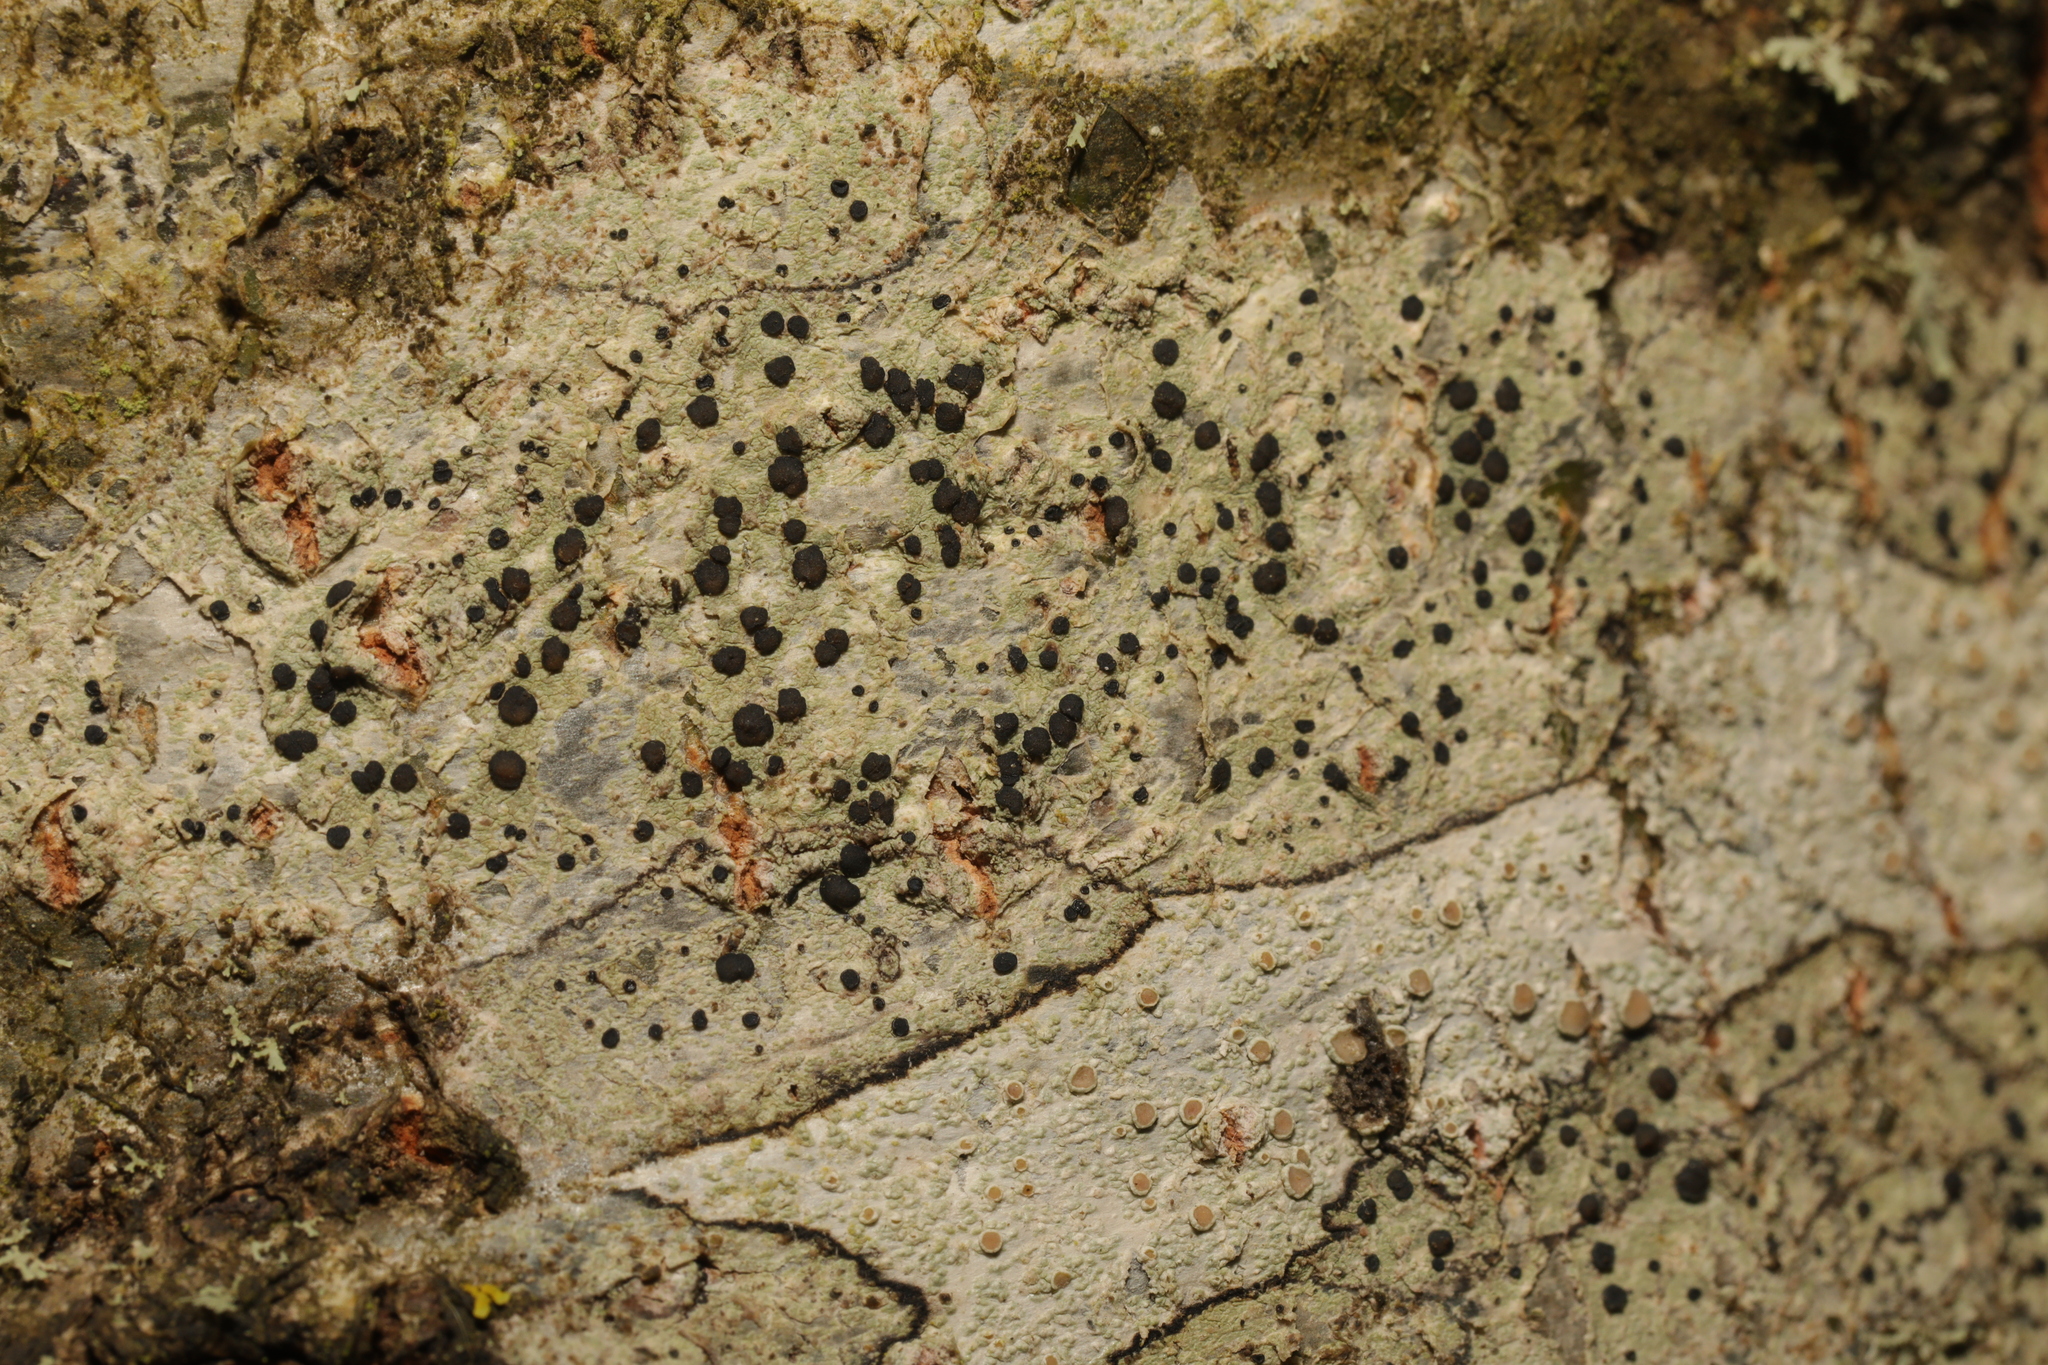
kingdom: Fungi
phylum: Ascomycota
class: Lecanoromycetes
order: Lecanorales
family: Lecanoraceae
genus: Lecidella
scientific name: Lecidella elaeochroma
